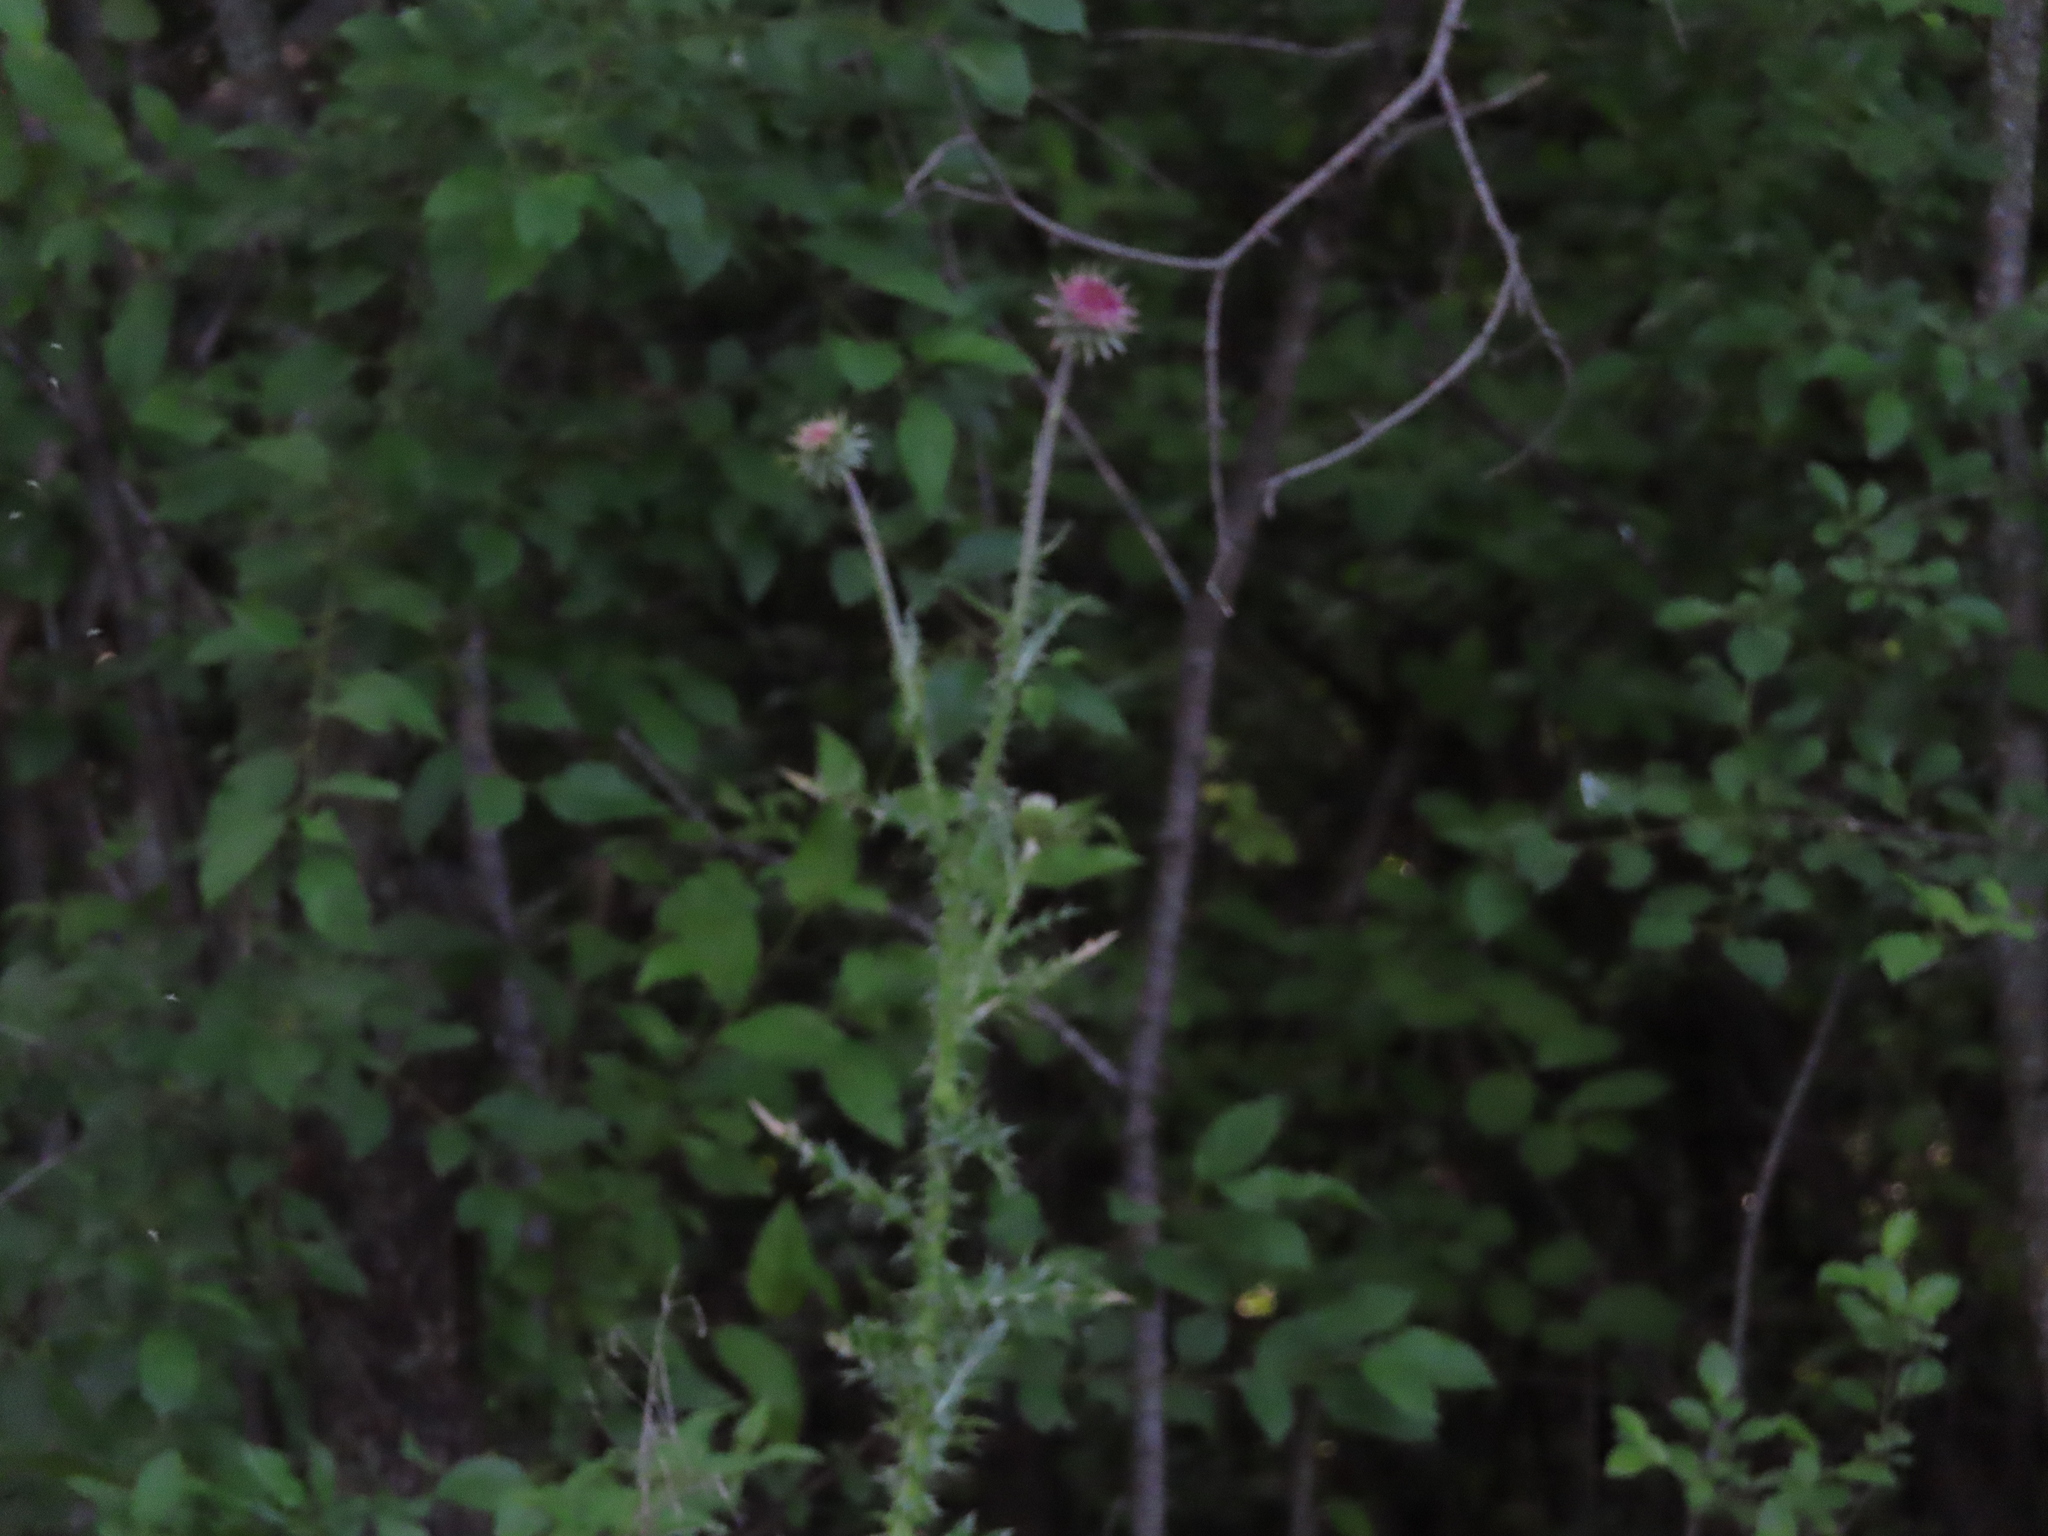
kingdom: Plantae
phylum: Tracheophyta
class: Magnoliopsida
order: Asterales
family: Asteraceae
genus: Carduus
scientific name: Carduus nutans
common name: Musk thistle
